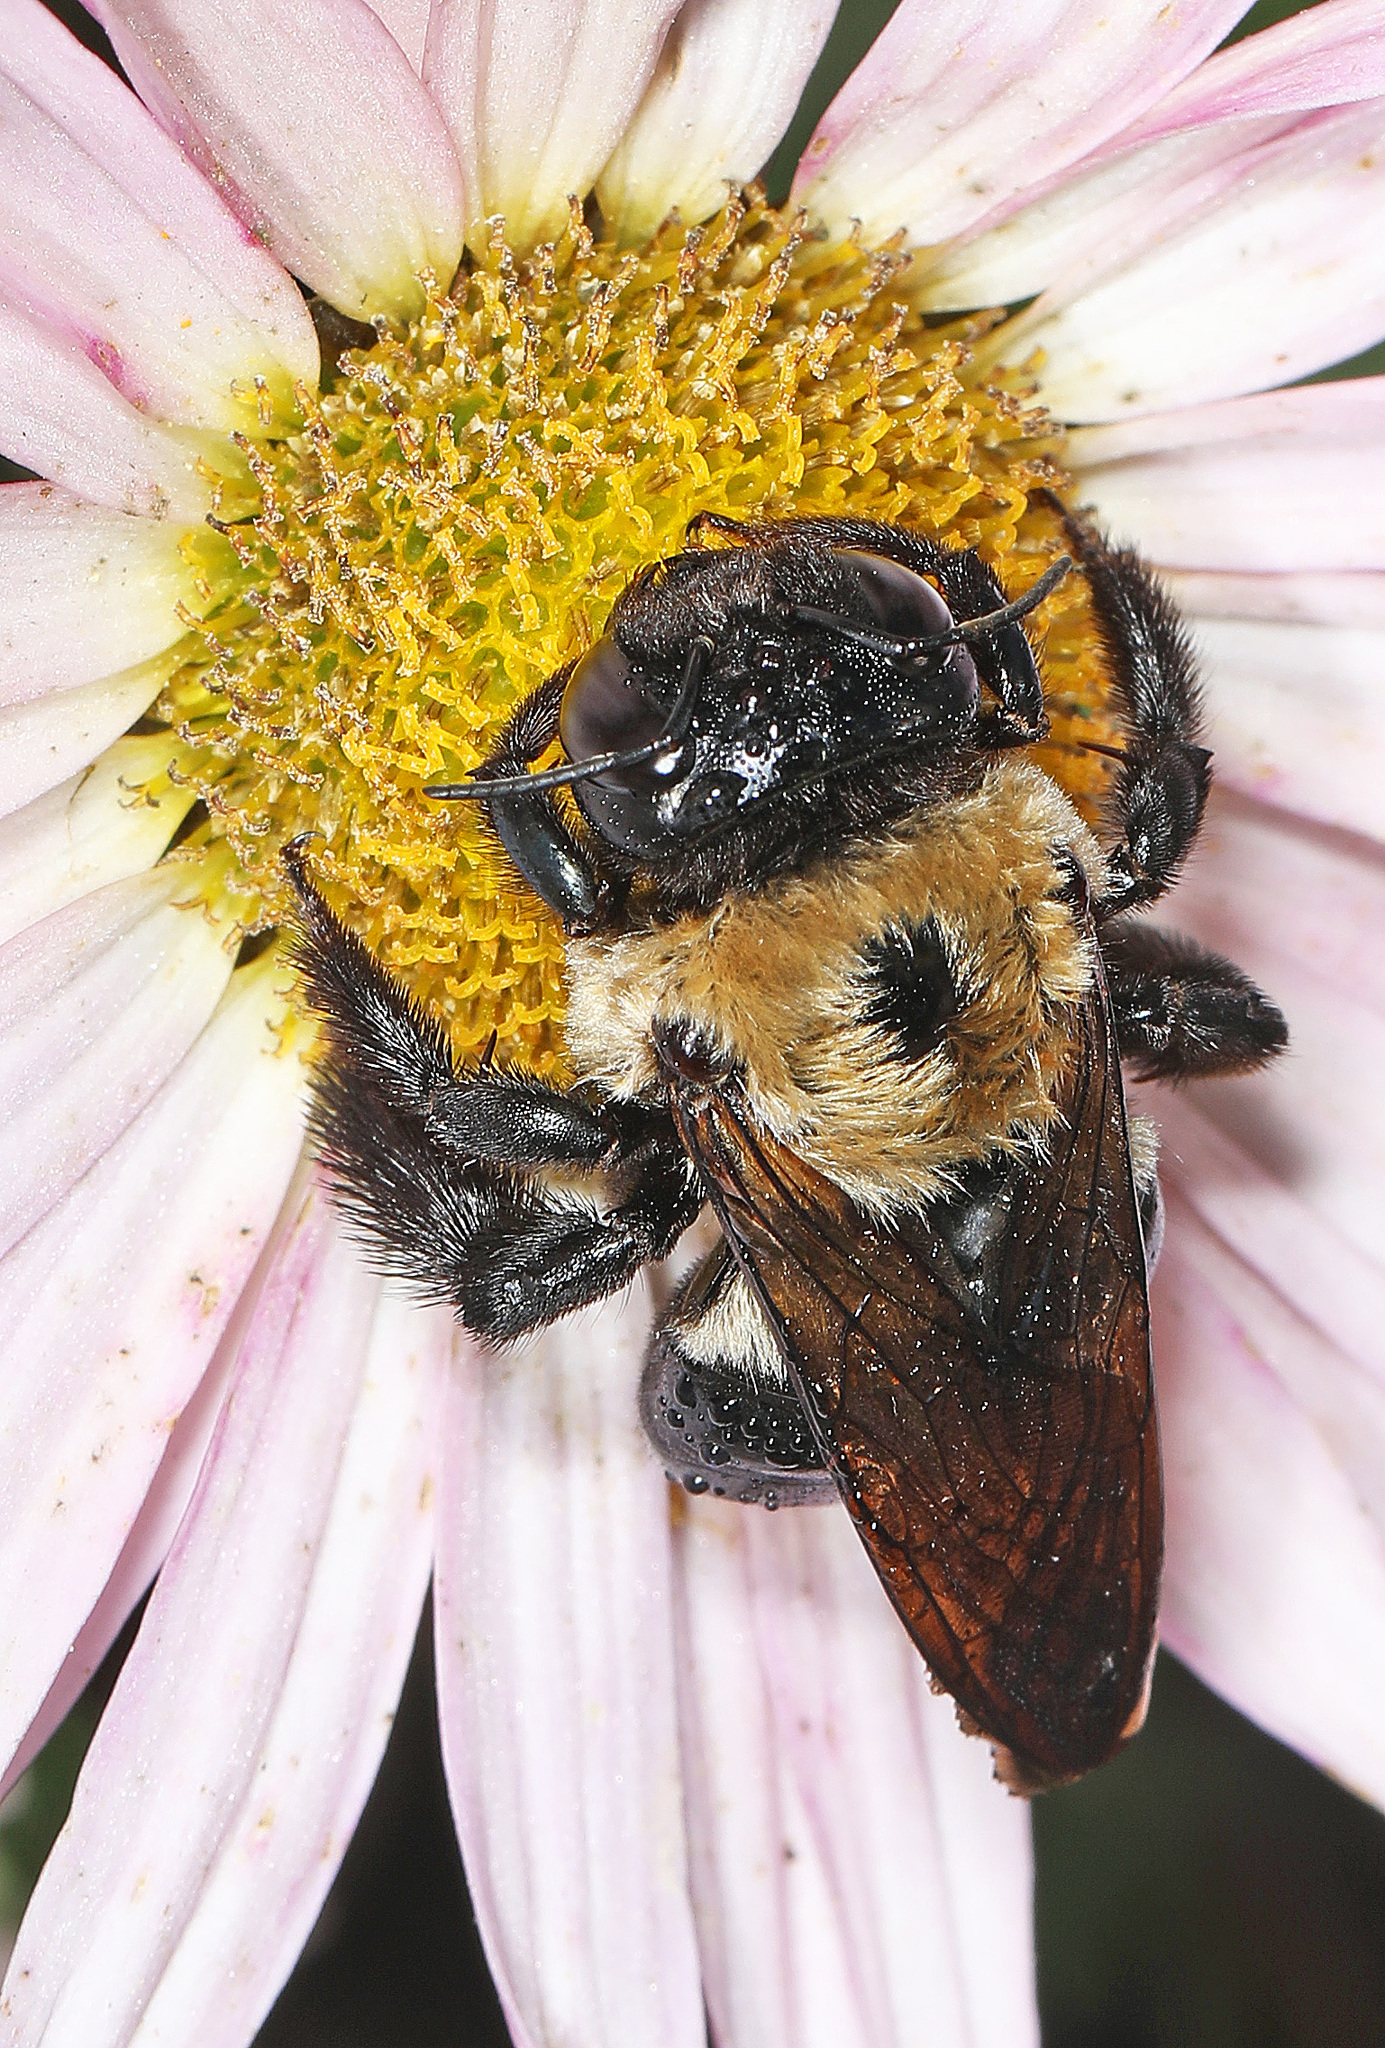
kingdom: Animalia
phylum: Arthropoda
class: Insecta
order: Hymenoptera
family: Apidae
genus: Xylocopa
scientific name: Xylocopa virginica
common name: Carpenter bee
